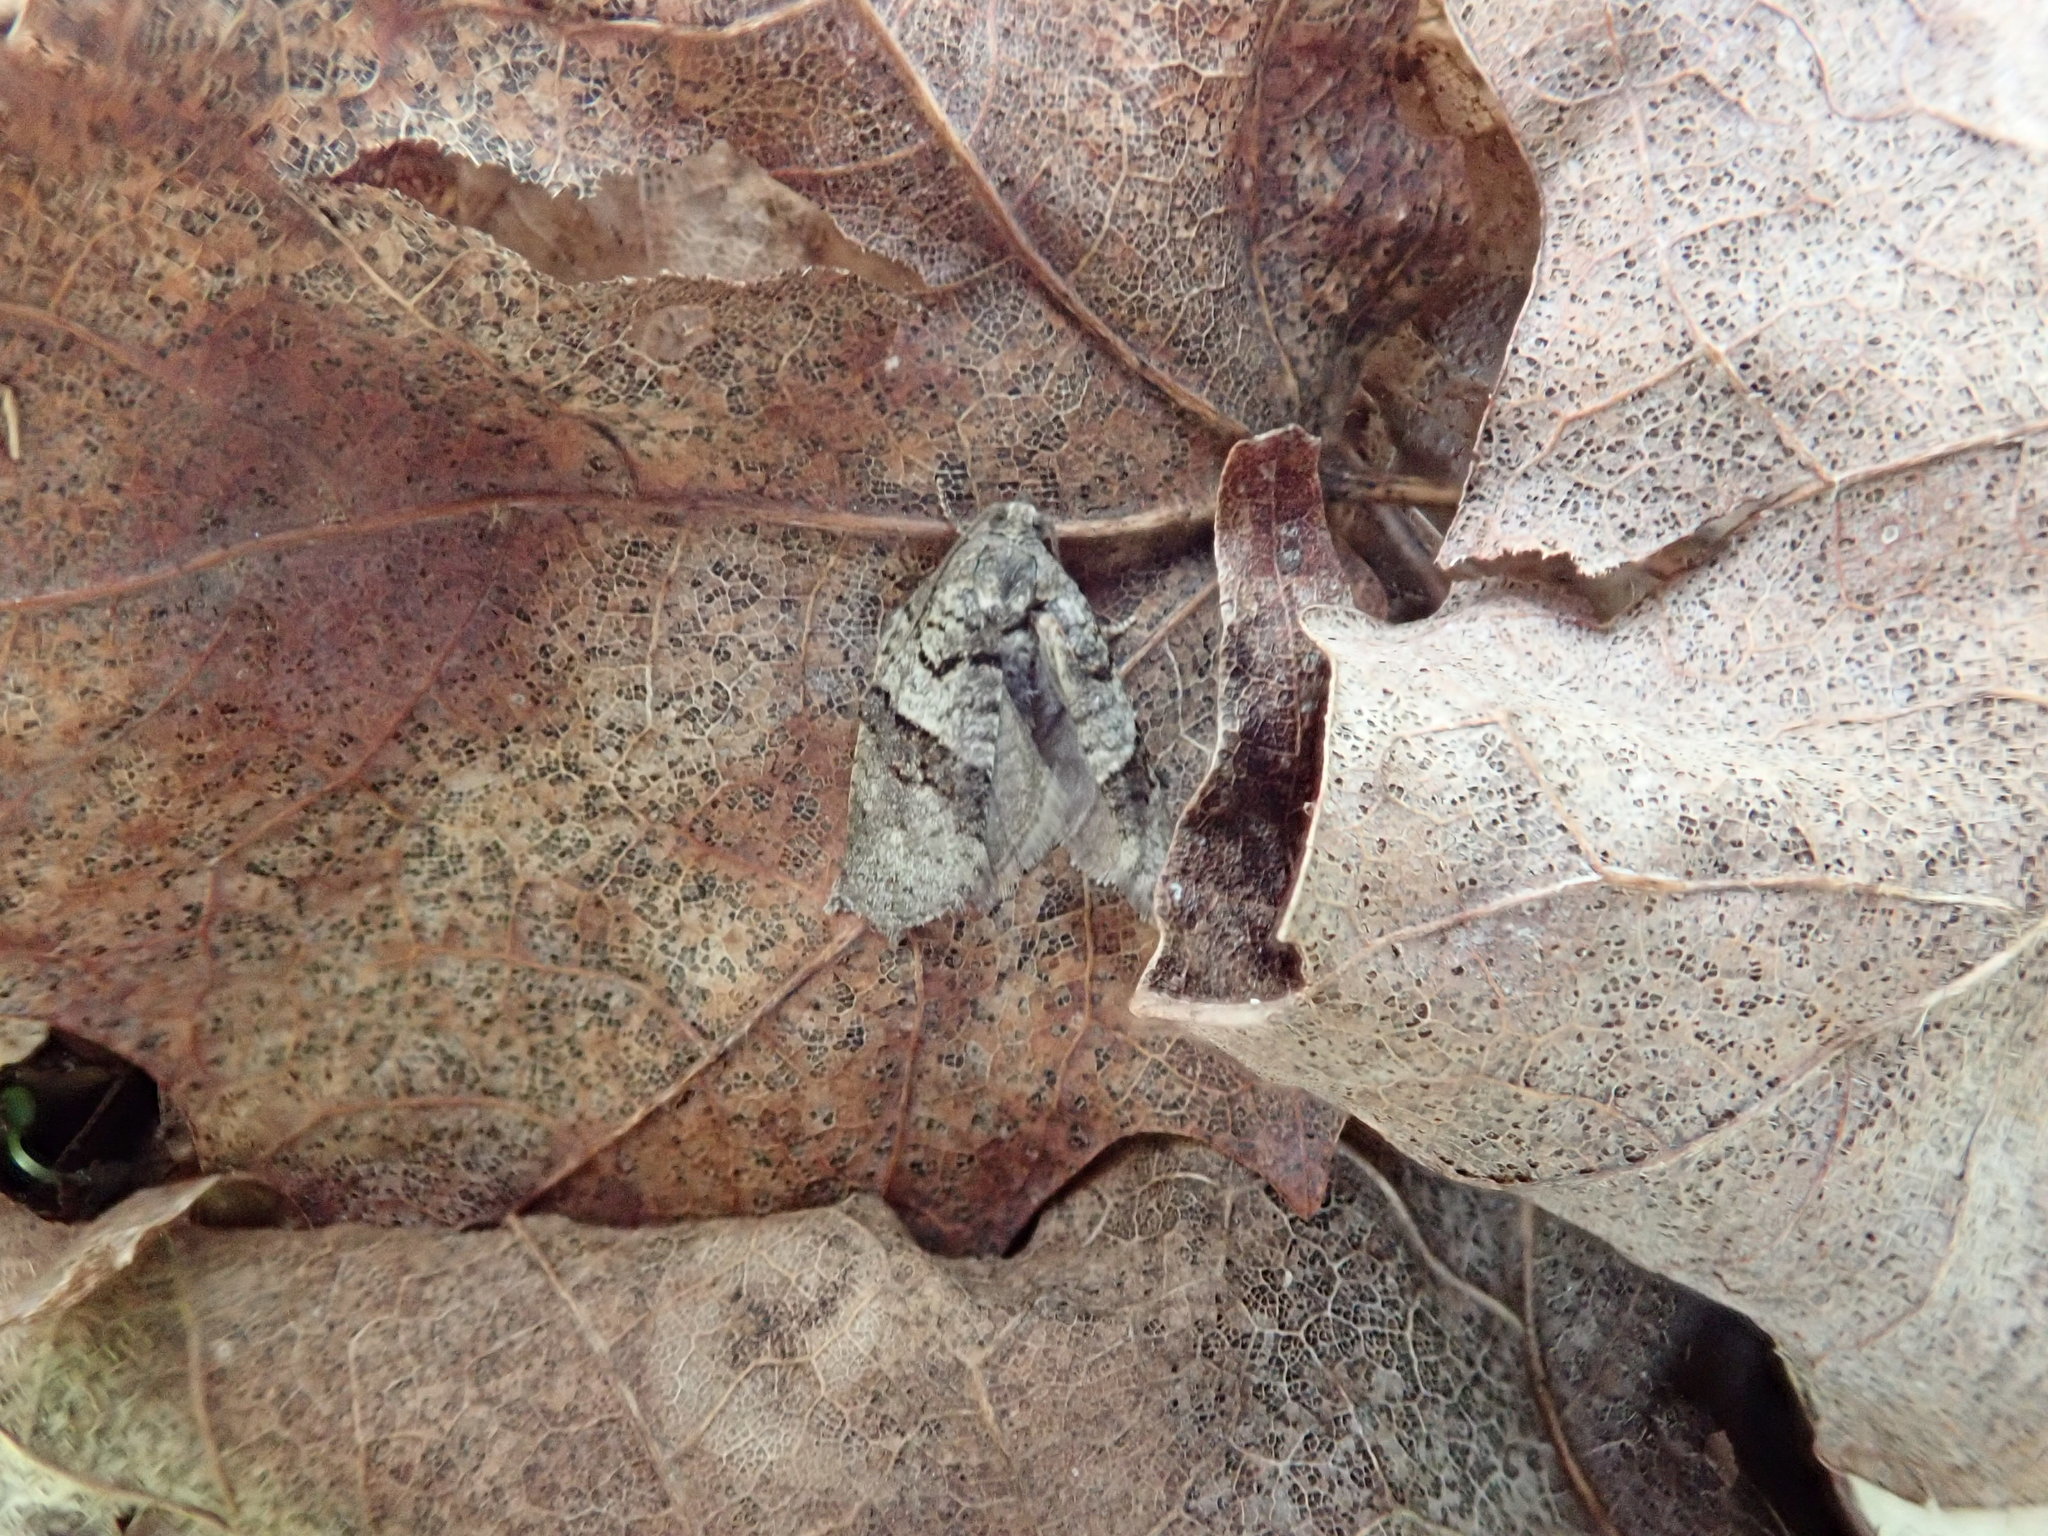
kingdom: Animalia
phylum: Arthropoda
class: Insecta
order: Lepidoptera
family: Tortricidae
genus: Syndemis
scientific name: Syndemis afflictana
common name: Gray leafroller moth
